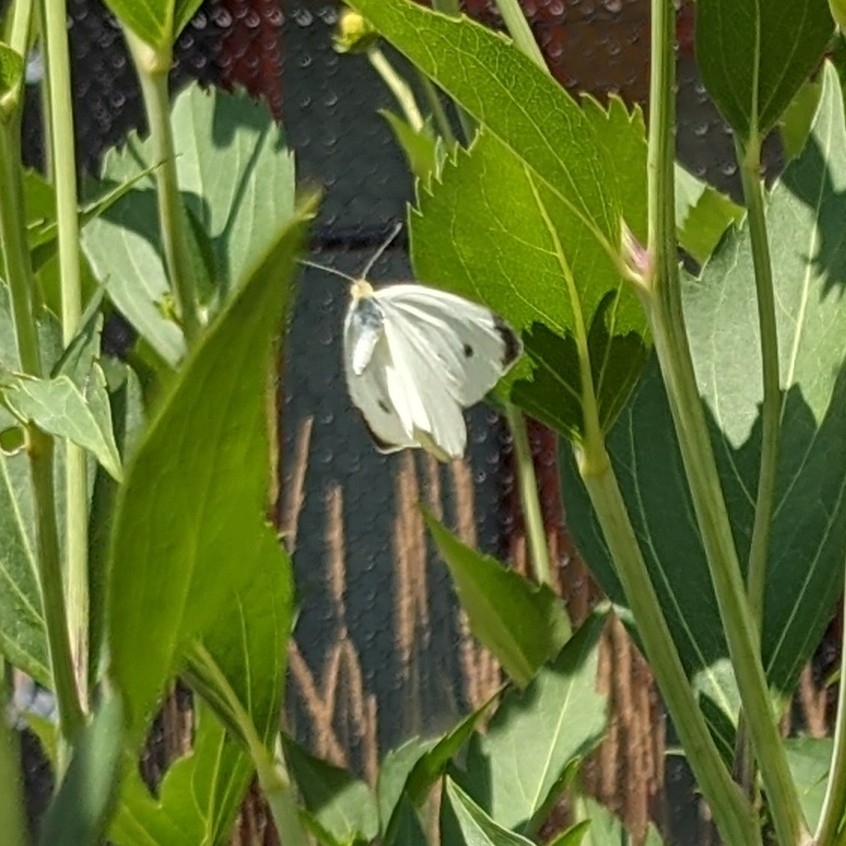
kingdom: Animalia
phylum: Arthropoda
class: Insecta
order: Lepidoptera
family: Pieridae
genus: Pieris
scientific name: Pieris rapae
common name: Small white
